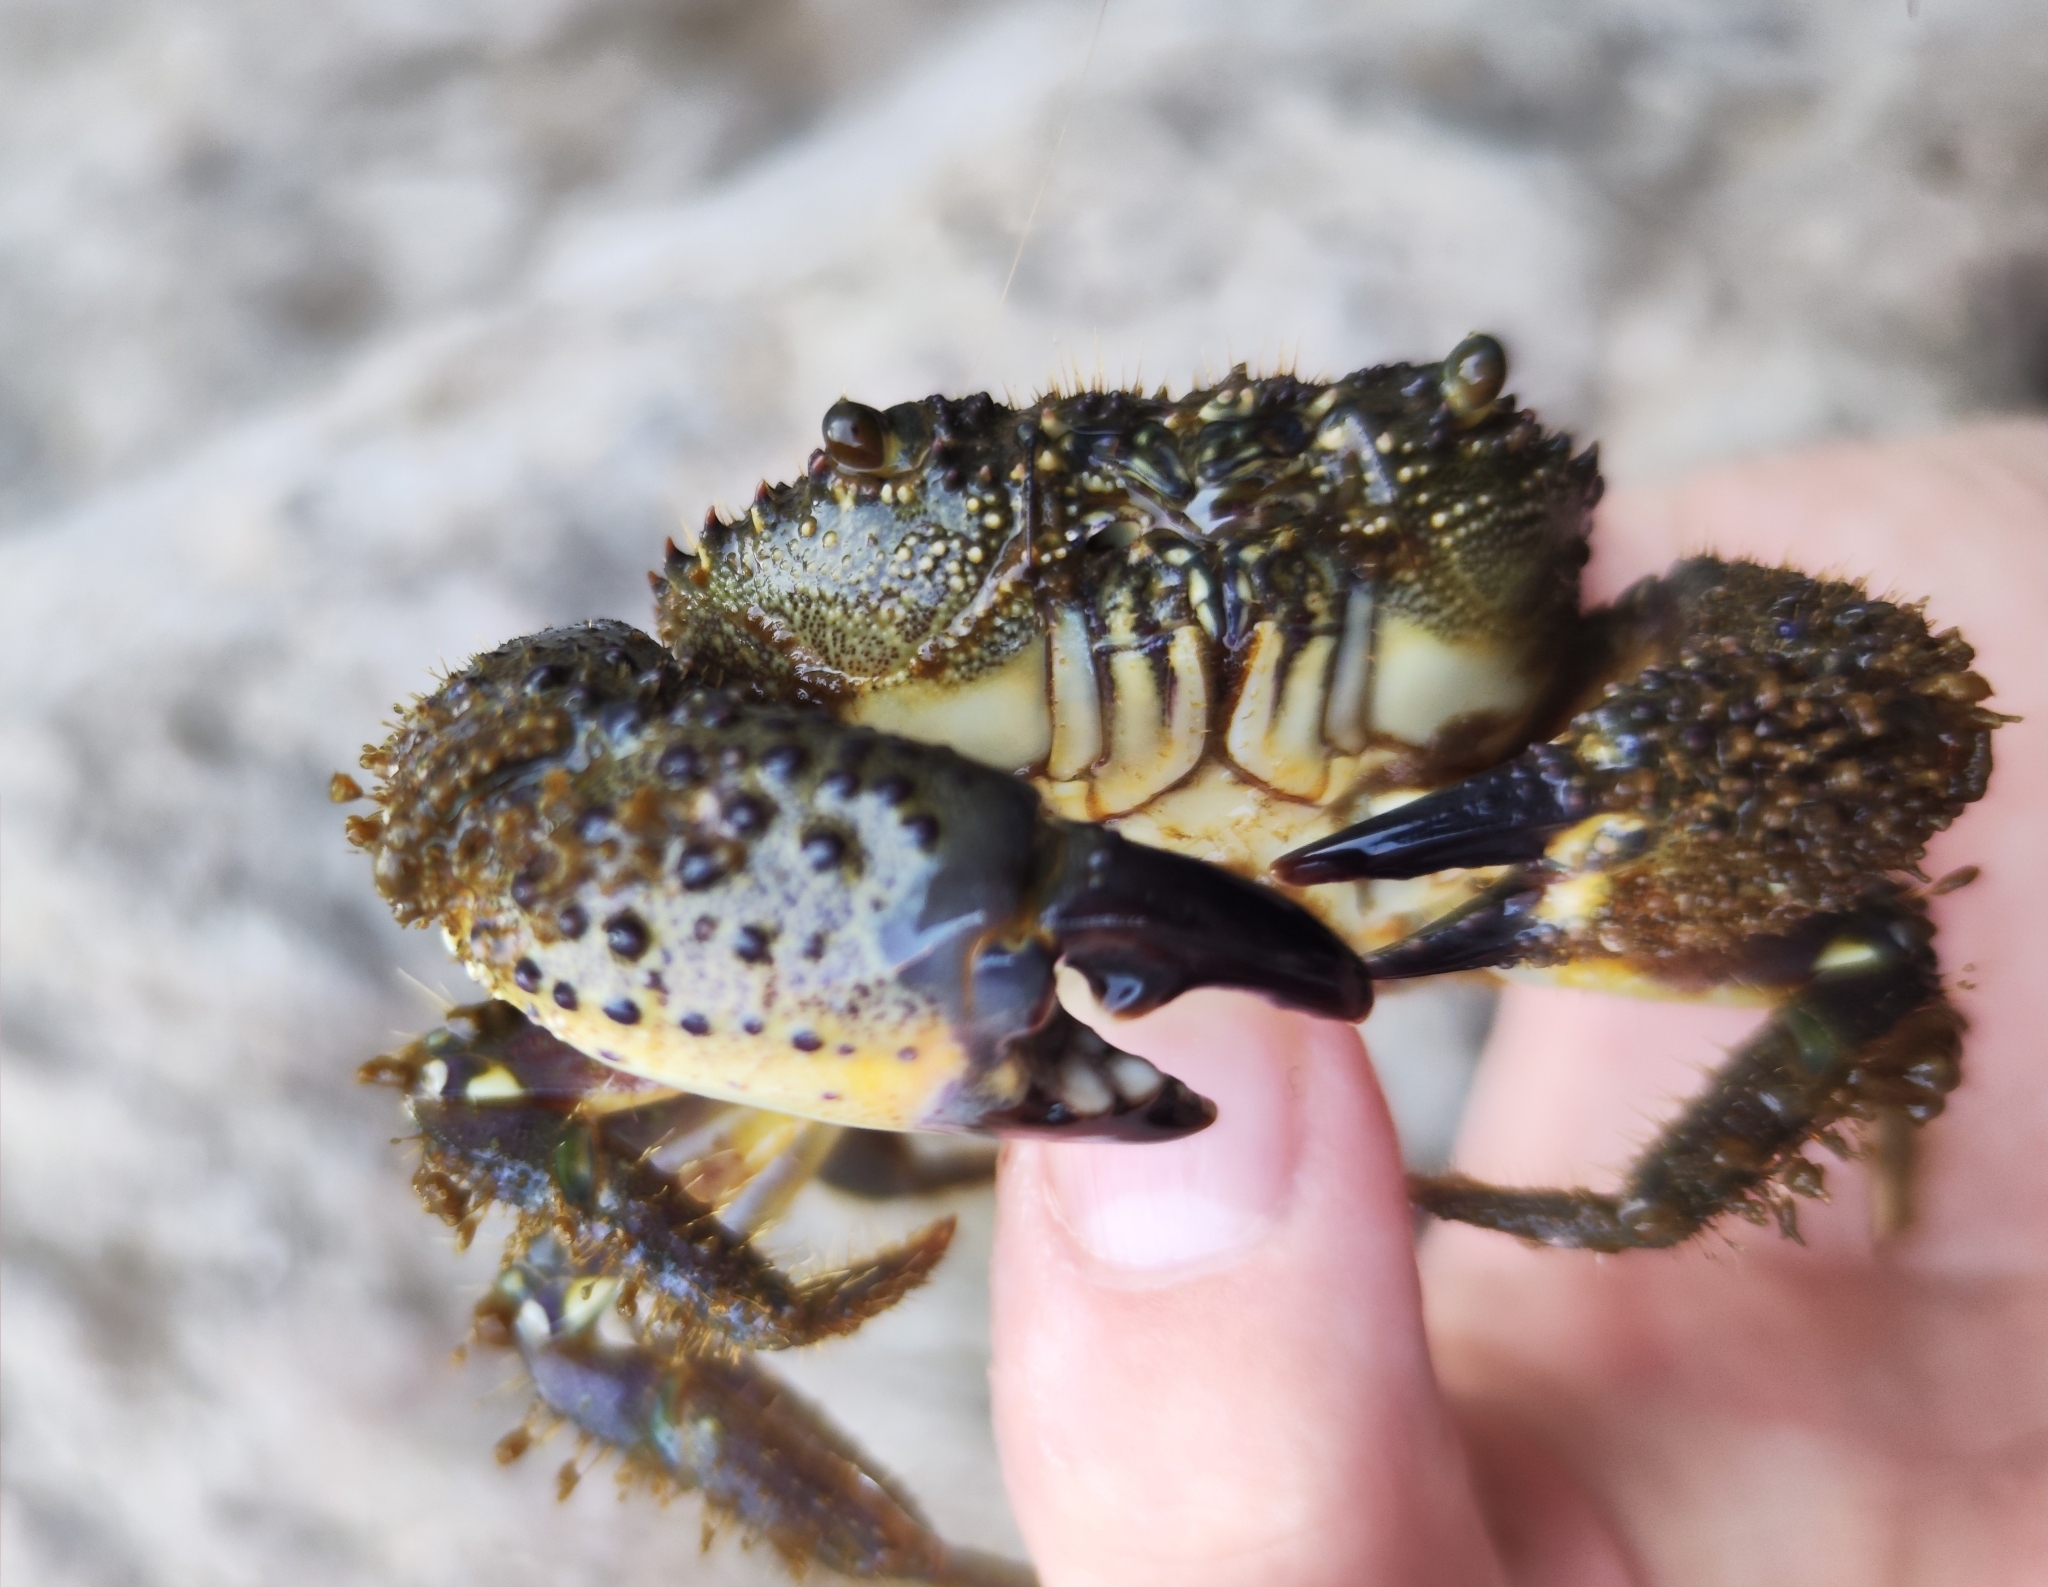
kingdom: Animalia
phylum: Arthropoda
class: Malacostraca
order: Decapoda
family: Eriphiidae
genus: Eriphia
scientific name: Eriphia verrucosa
